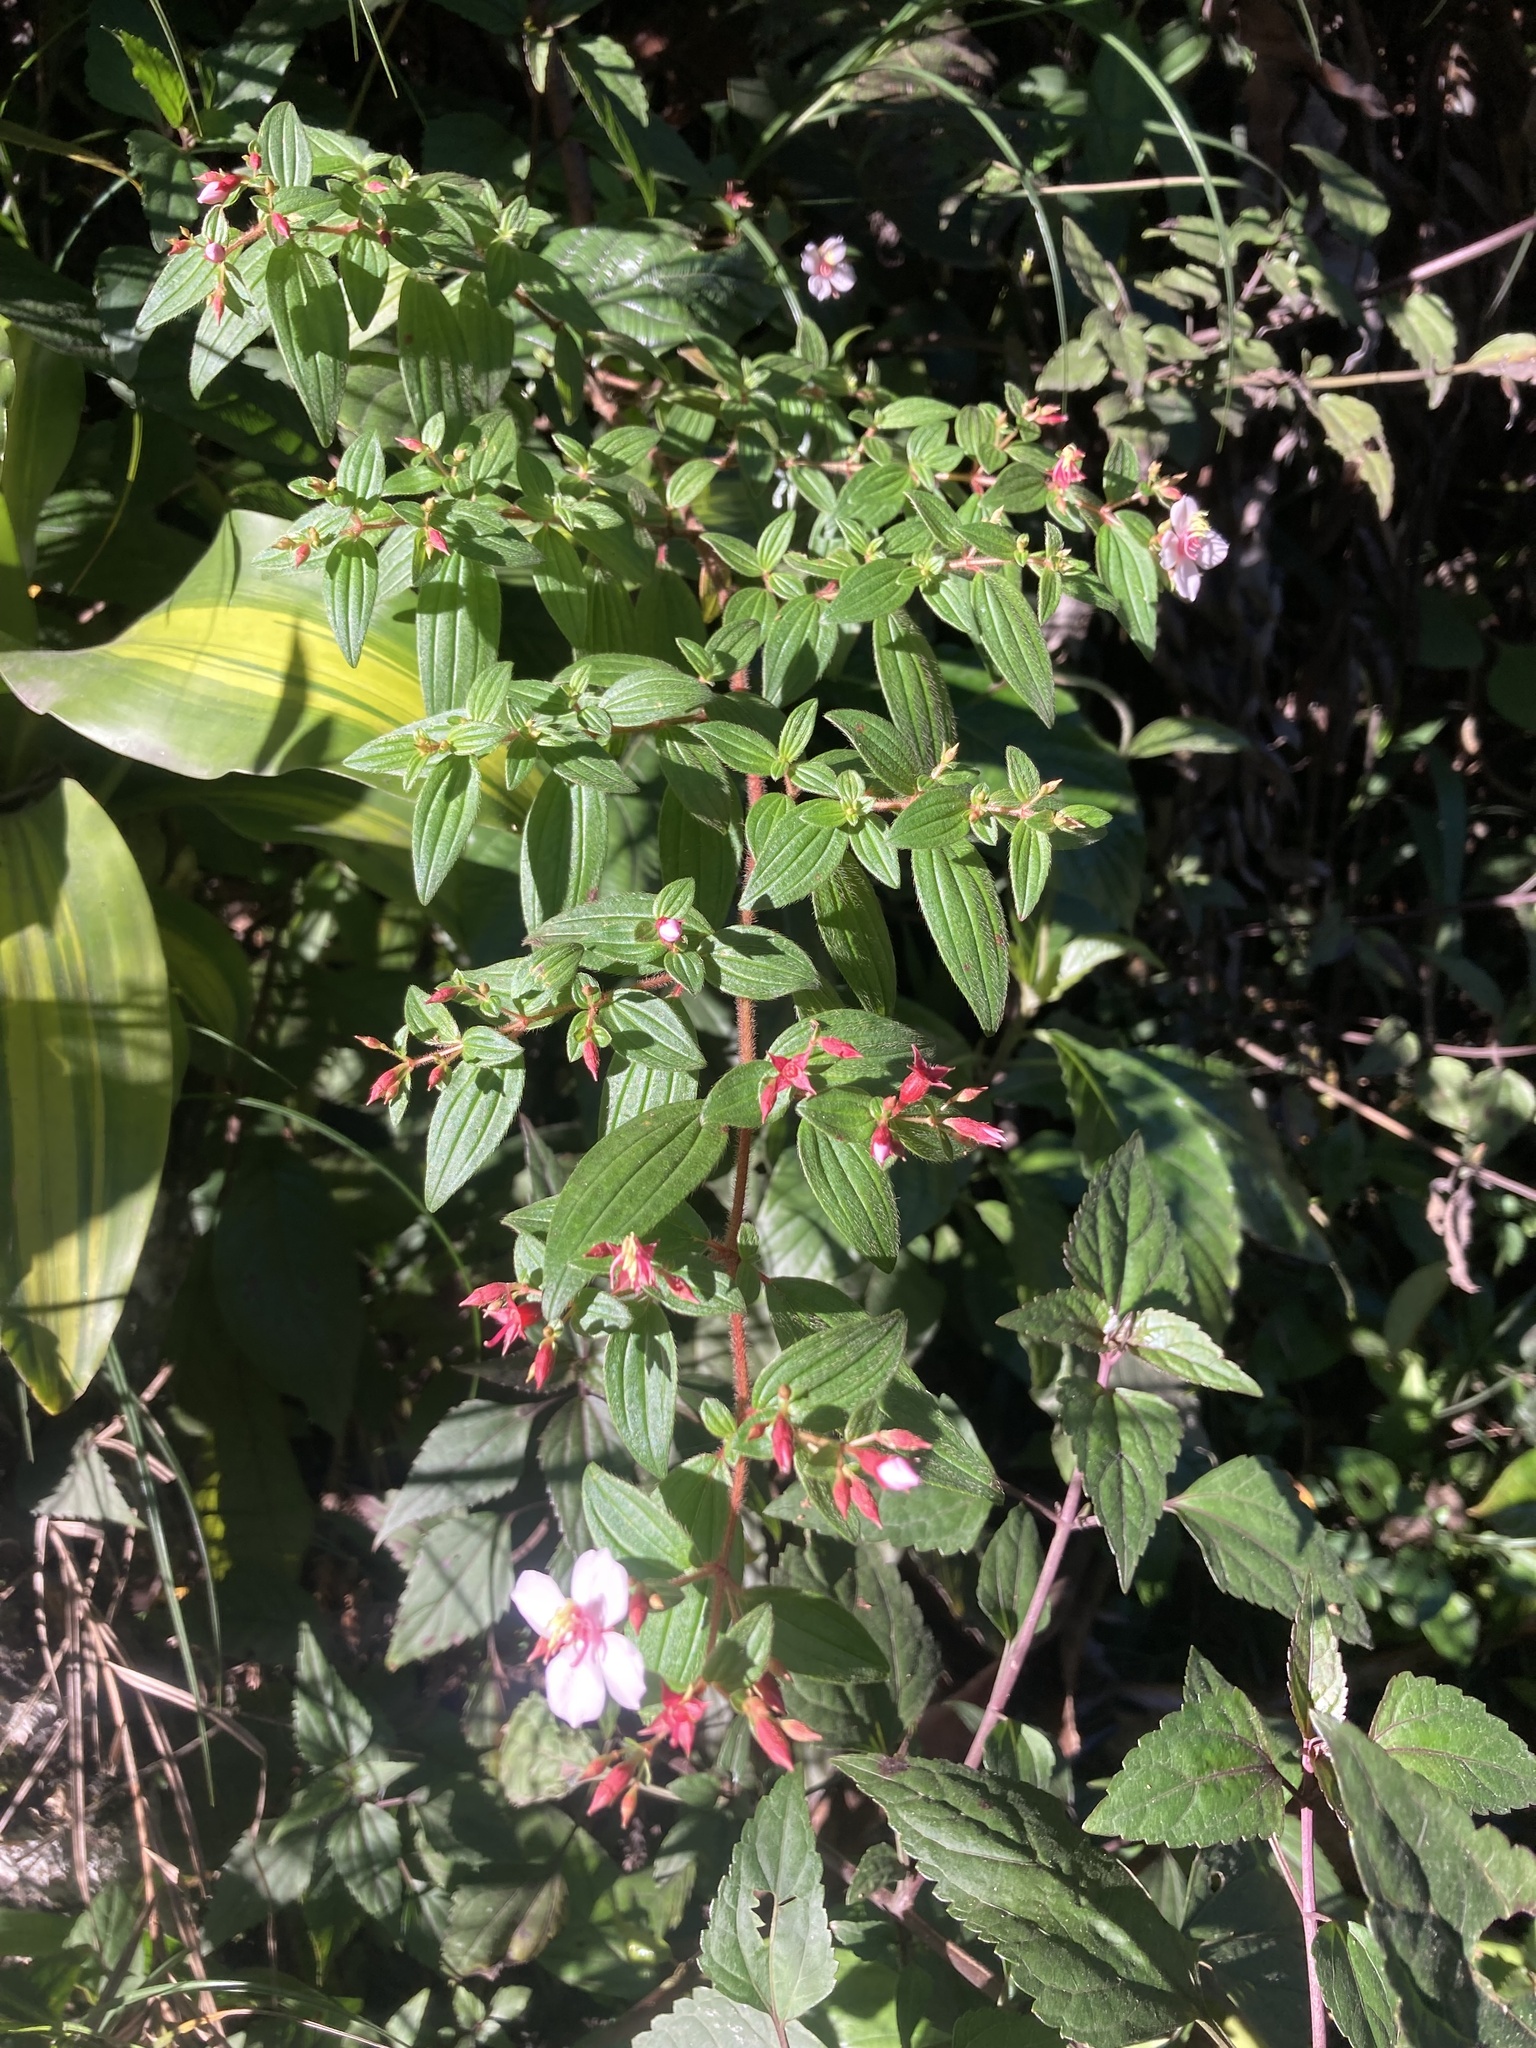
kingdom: Plantae
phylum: Tracheophyta
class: Magnoliopsida
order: Myrtales
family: Melastomataceae
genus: Monochaetum
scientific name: Monochaetum floribundum
